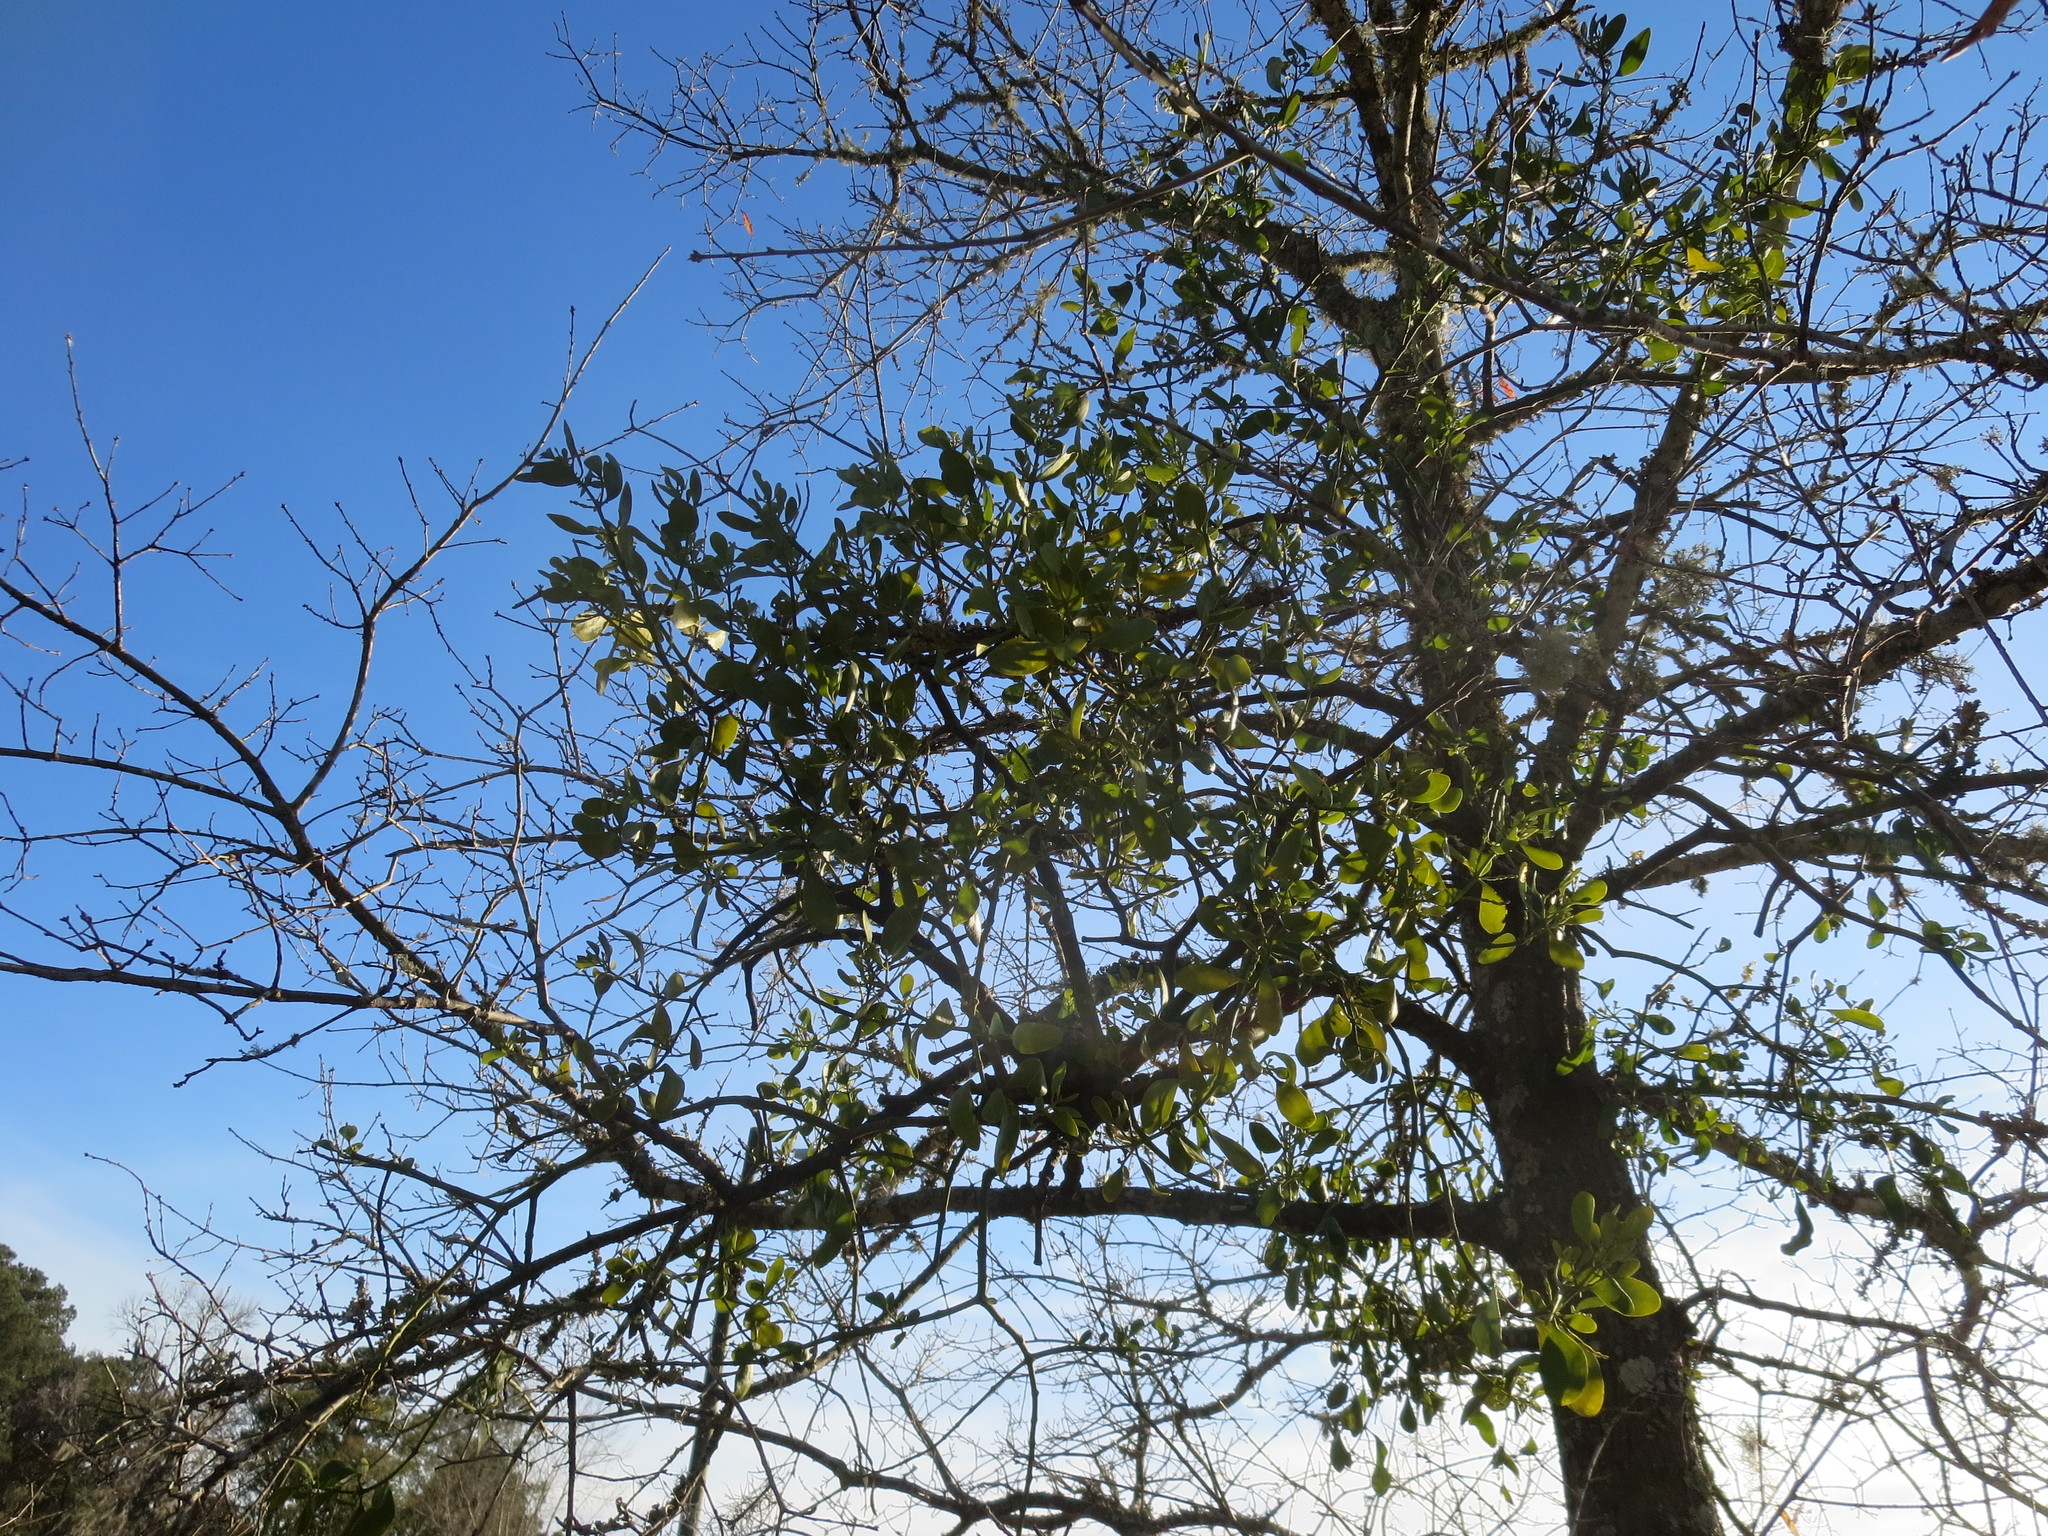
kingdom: Plantae
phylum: Tracheophyta
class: Magnoliopsida
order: Santalales
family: Viscaceae
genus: Phoradendron
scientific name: Phoradendron leucarpum
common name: Pacific mistletoe
